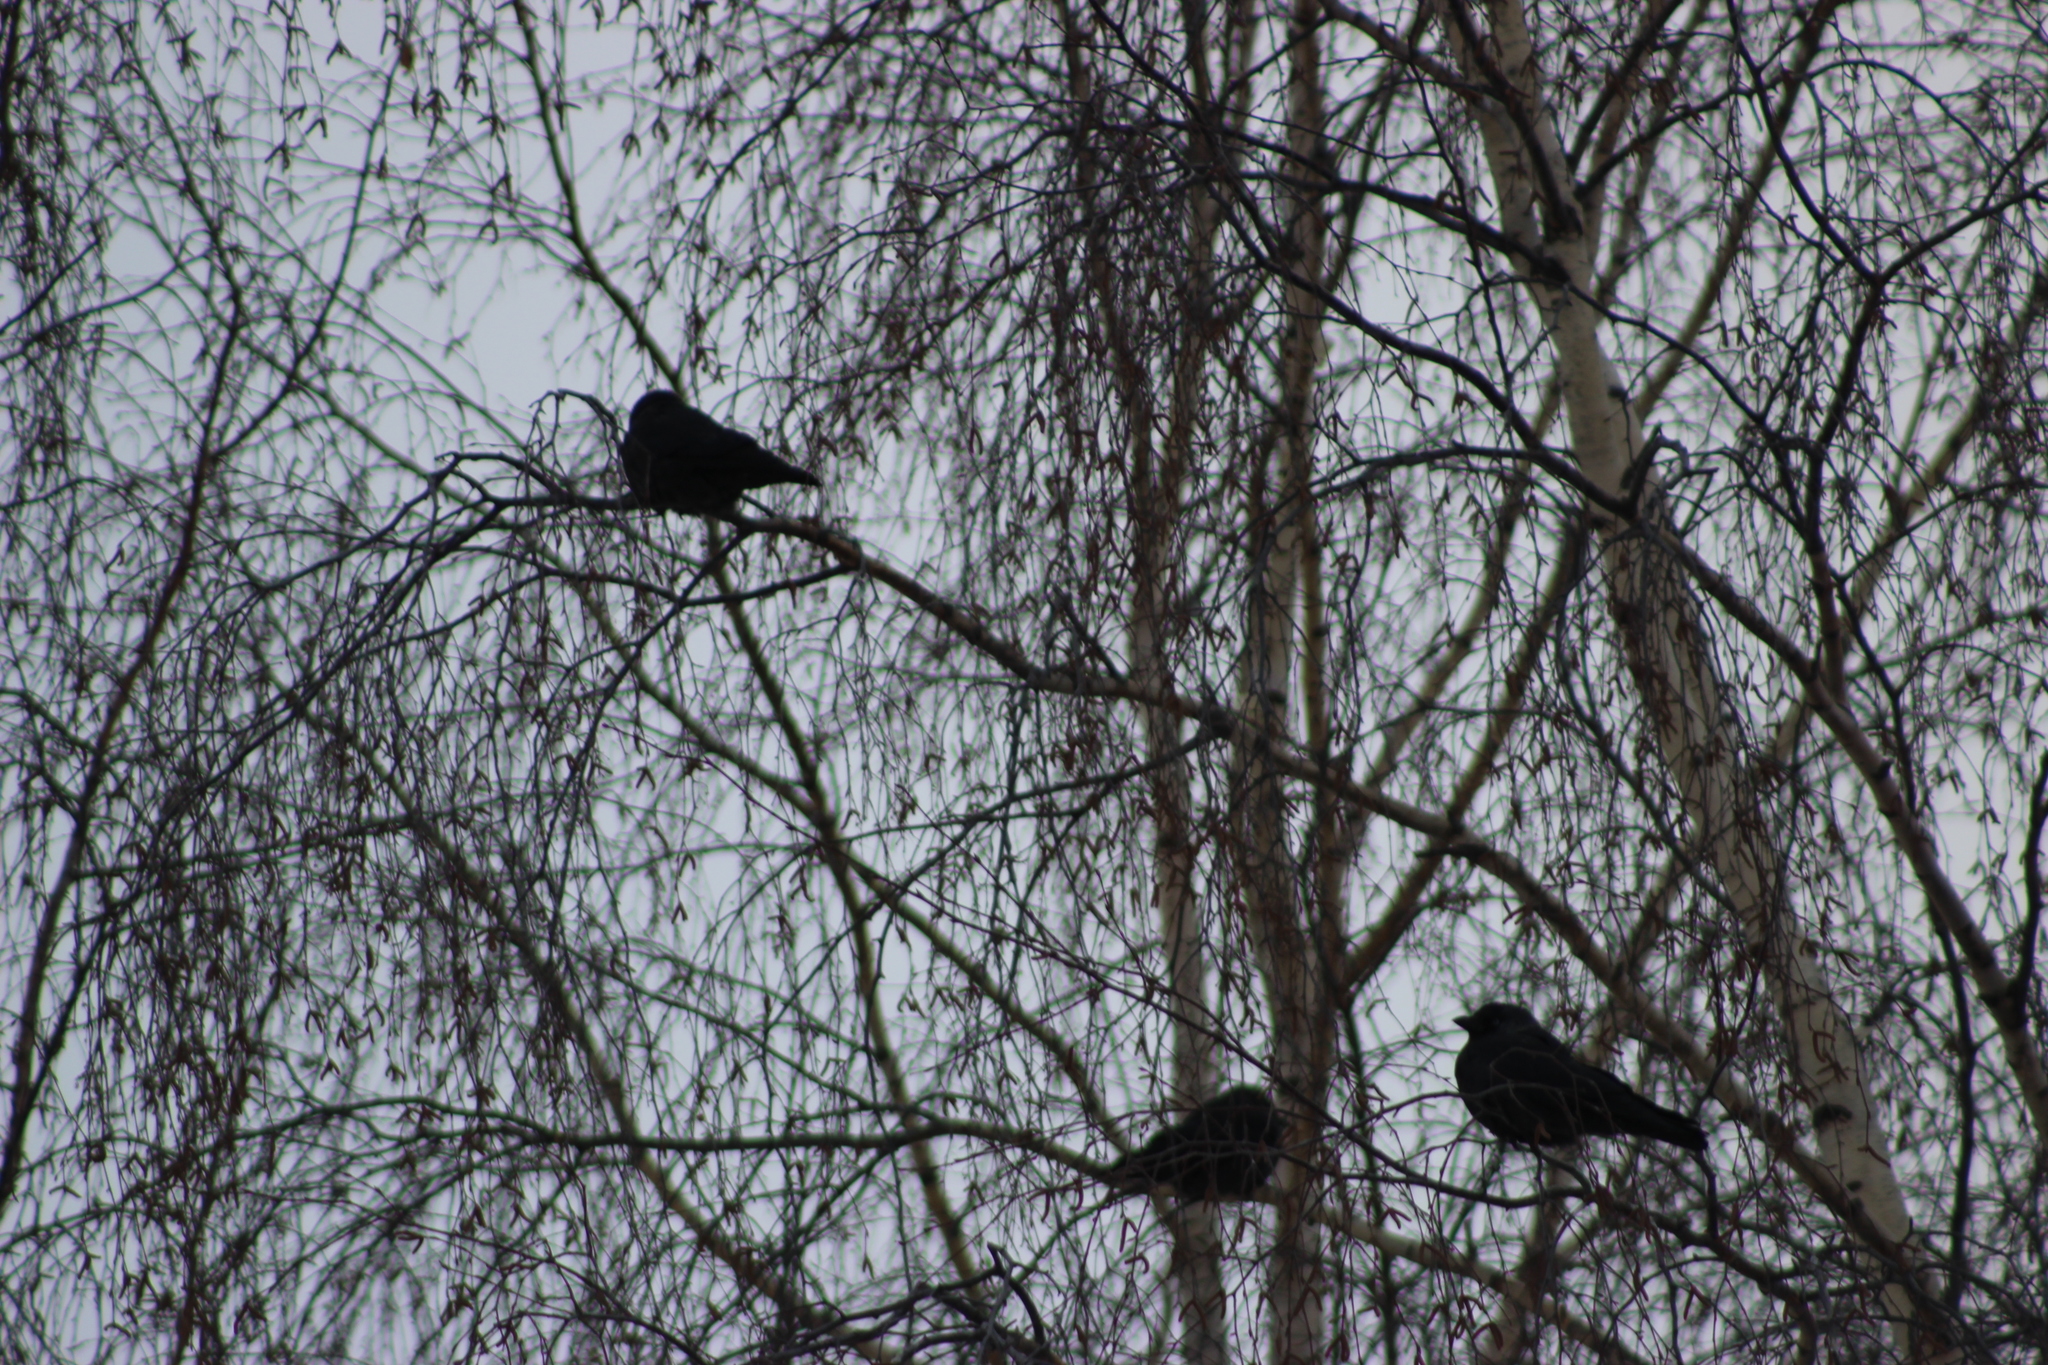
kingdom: Animalia
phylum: Chordata
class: Aves
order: Passeriformes
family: Corvidae
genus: Coloeus
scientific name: Coloeus monedula
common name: Western jackdaw
